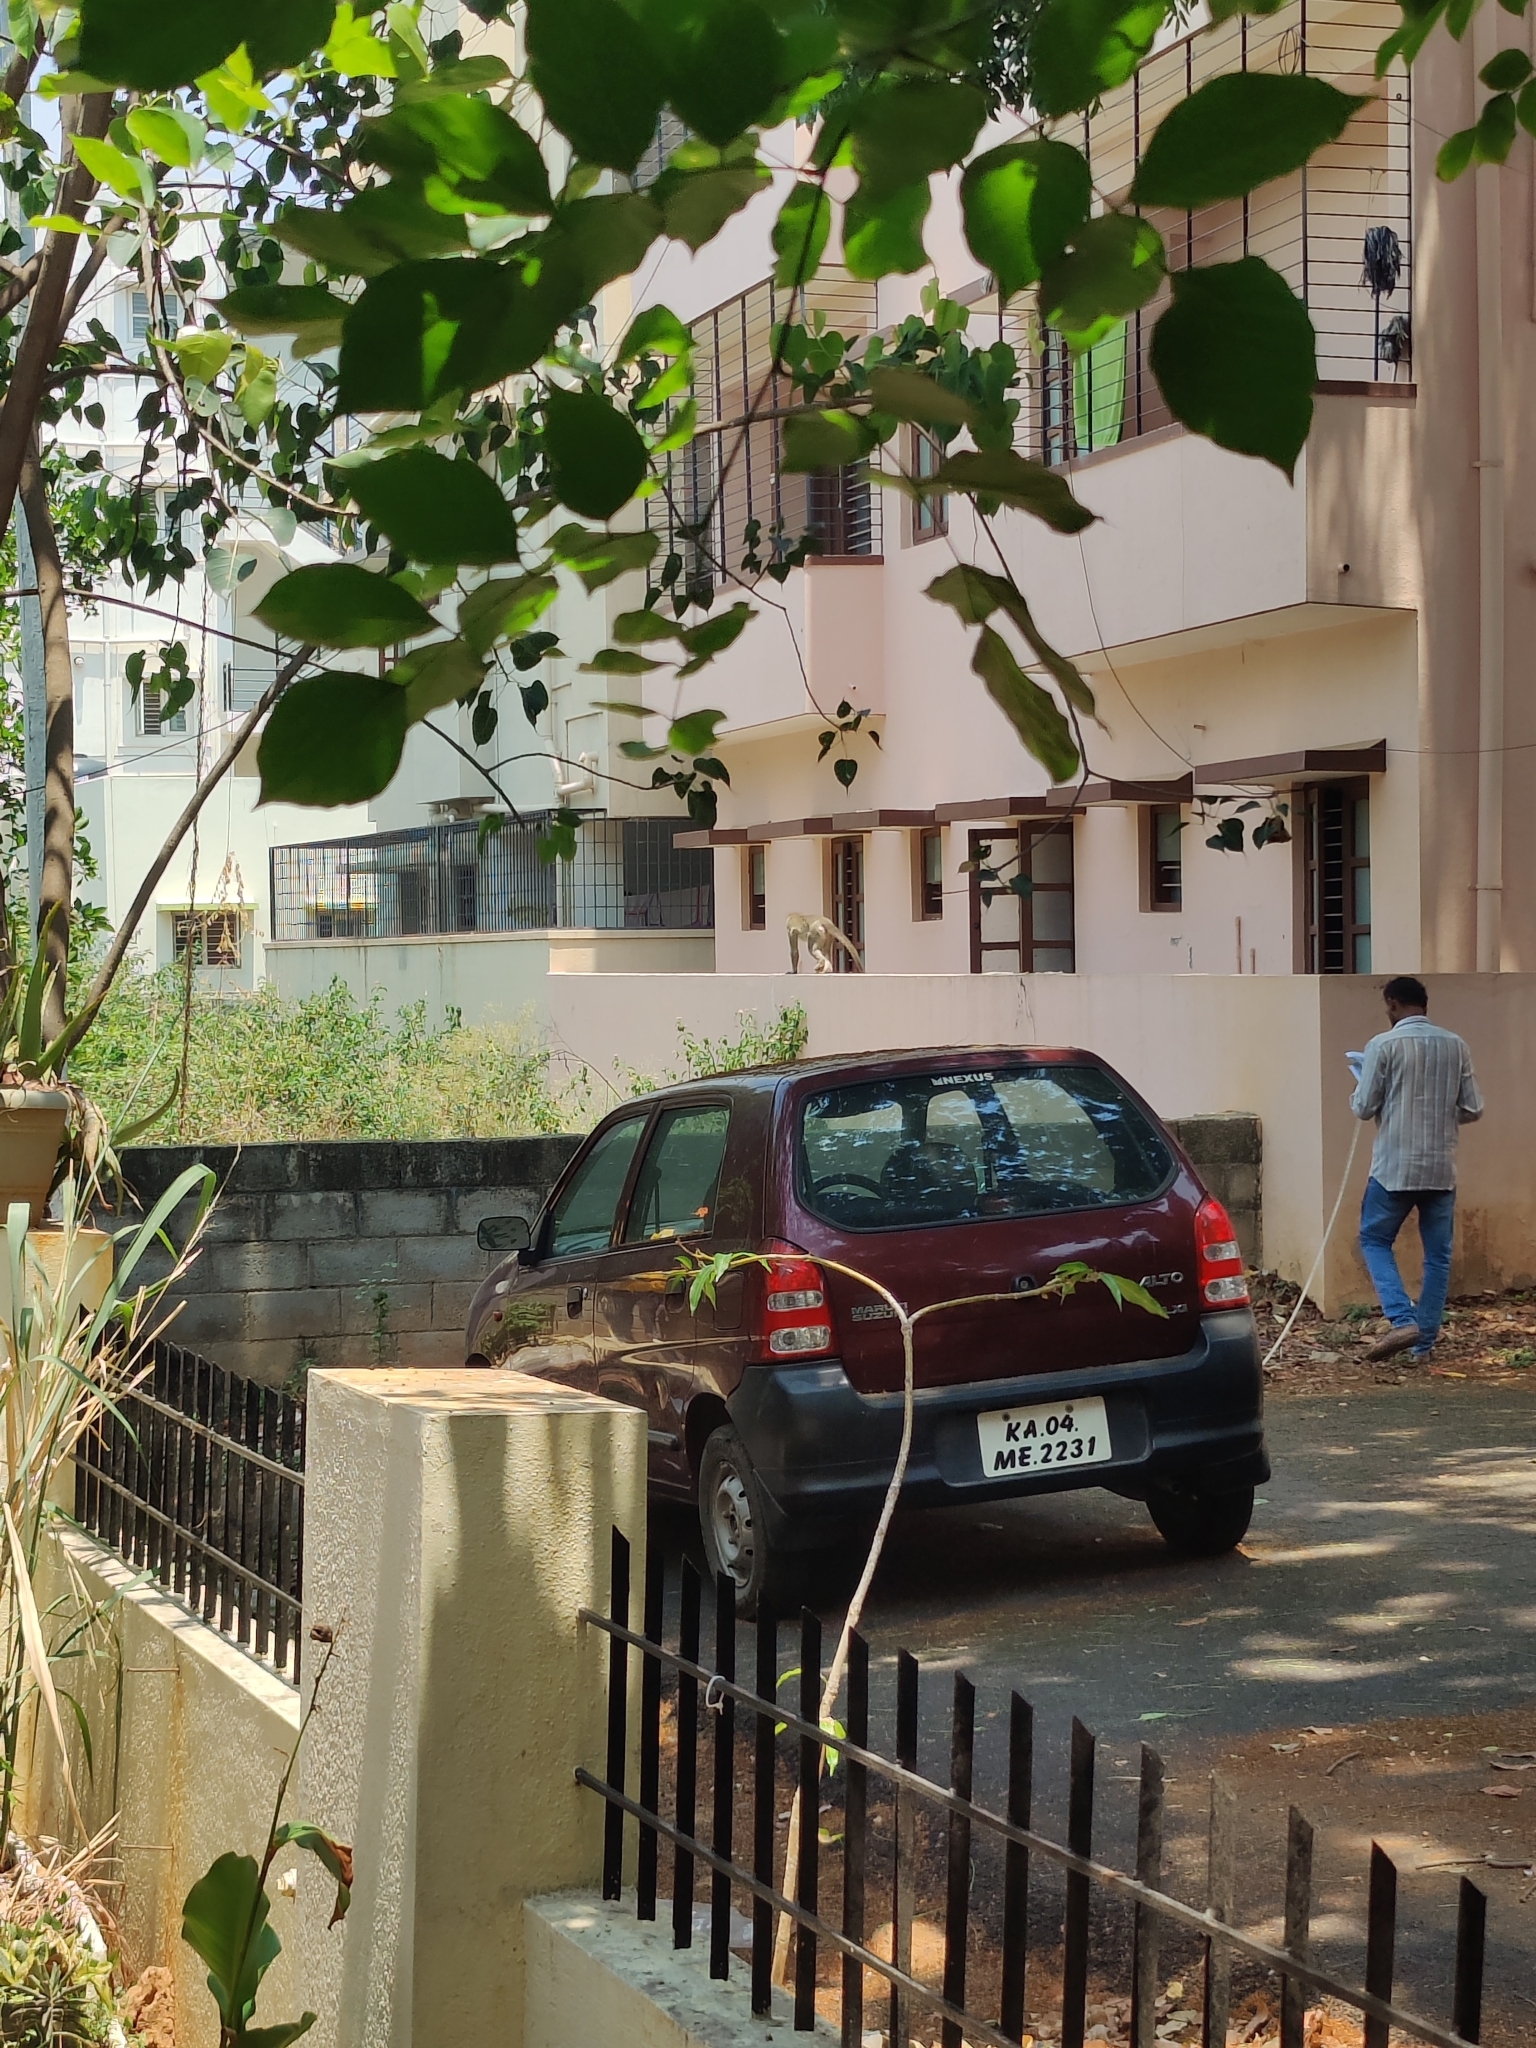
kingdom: Animalia
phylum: Chordata
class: Mammalia
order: Primates
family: Cercopithecidae
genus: Macaca
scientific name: Macaca radiata
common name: Bonnet macaque
